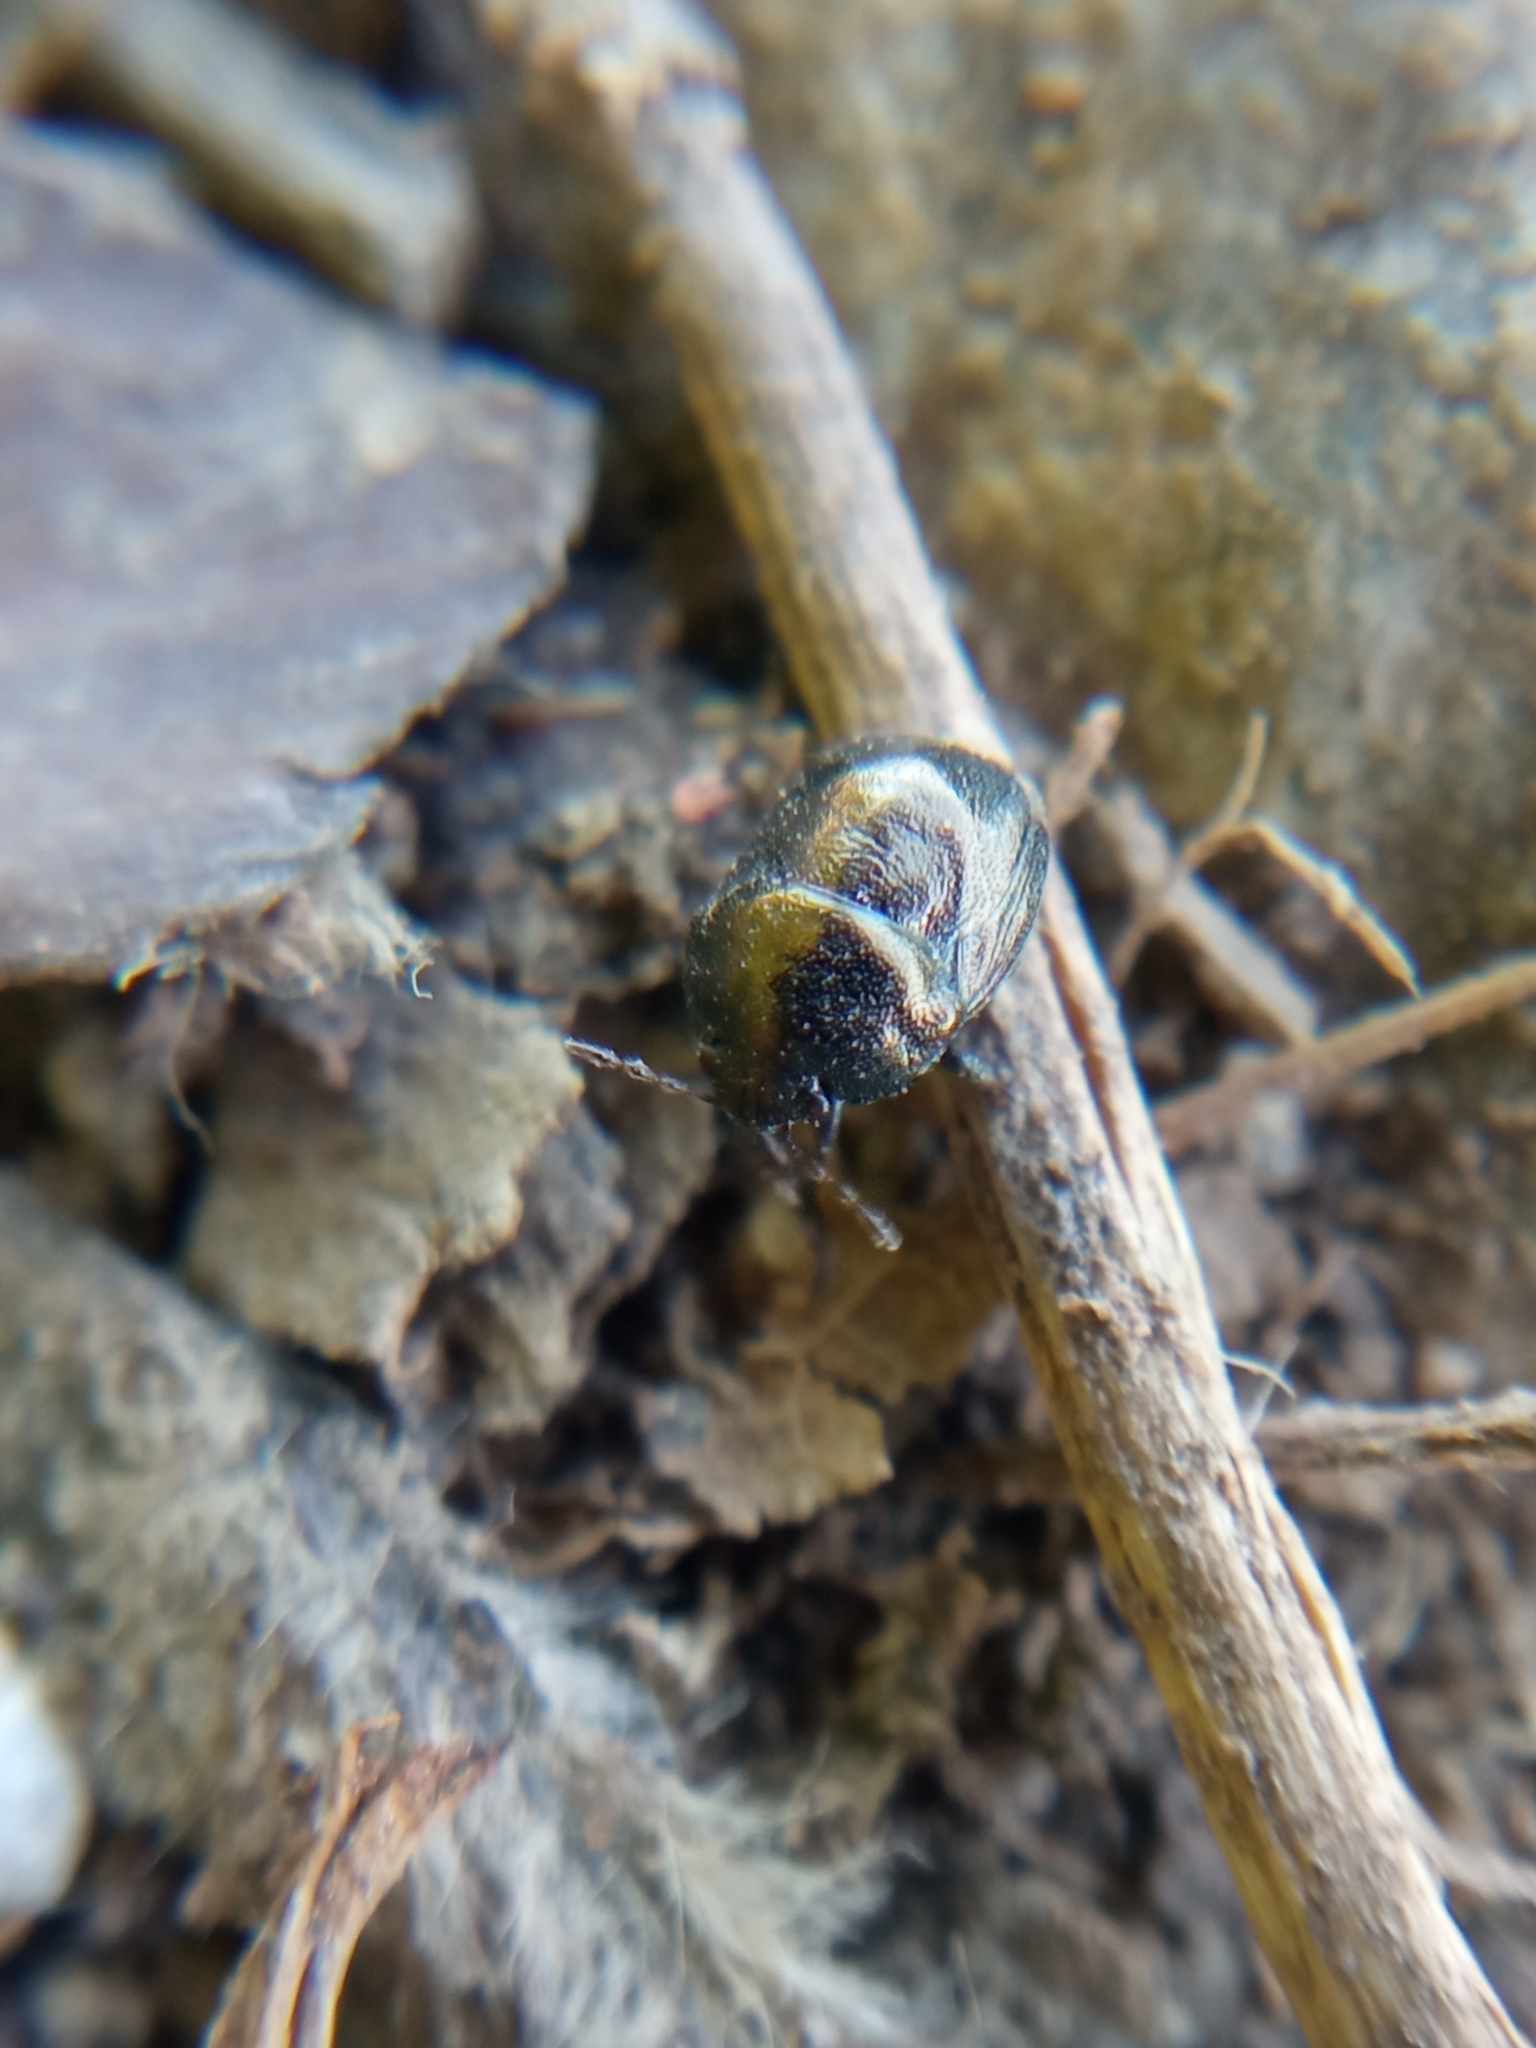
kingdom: Animalia
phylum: Arthropoda
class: Insecta
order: Hemiptera
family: Thyreocoridae
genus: Thyreocoris
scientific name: Thyreocoris scarabaeoides
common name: Negro bug
